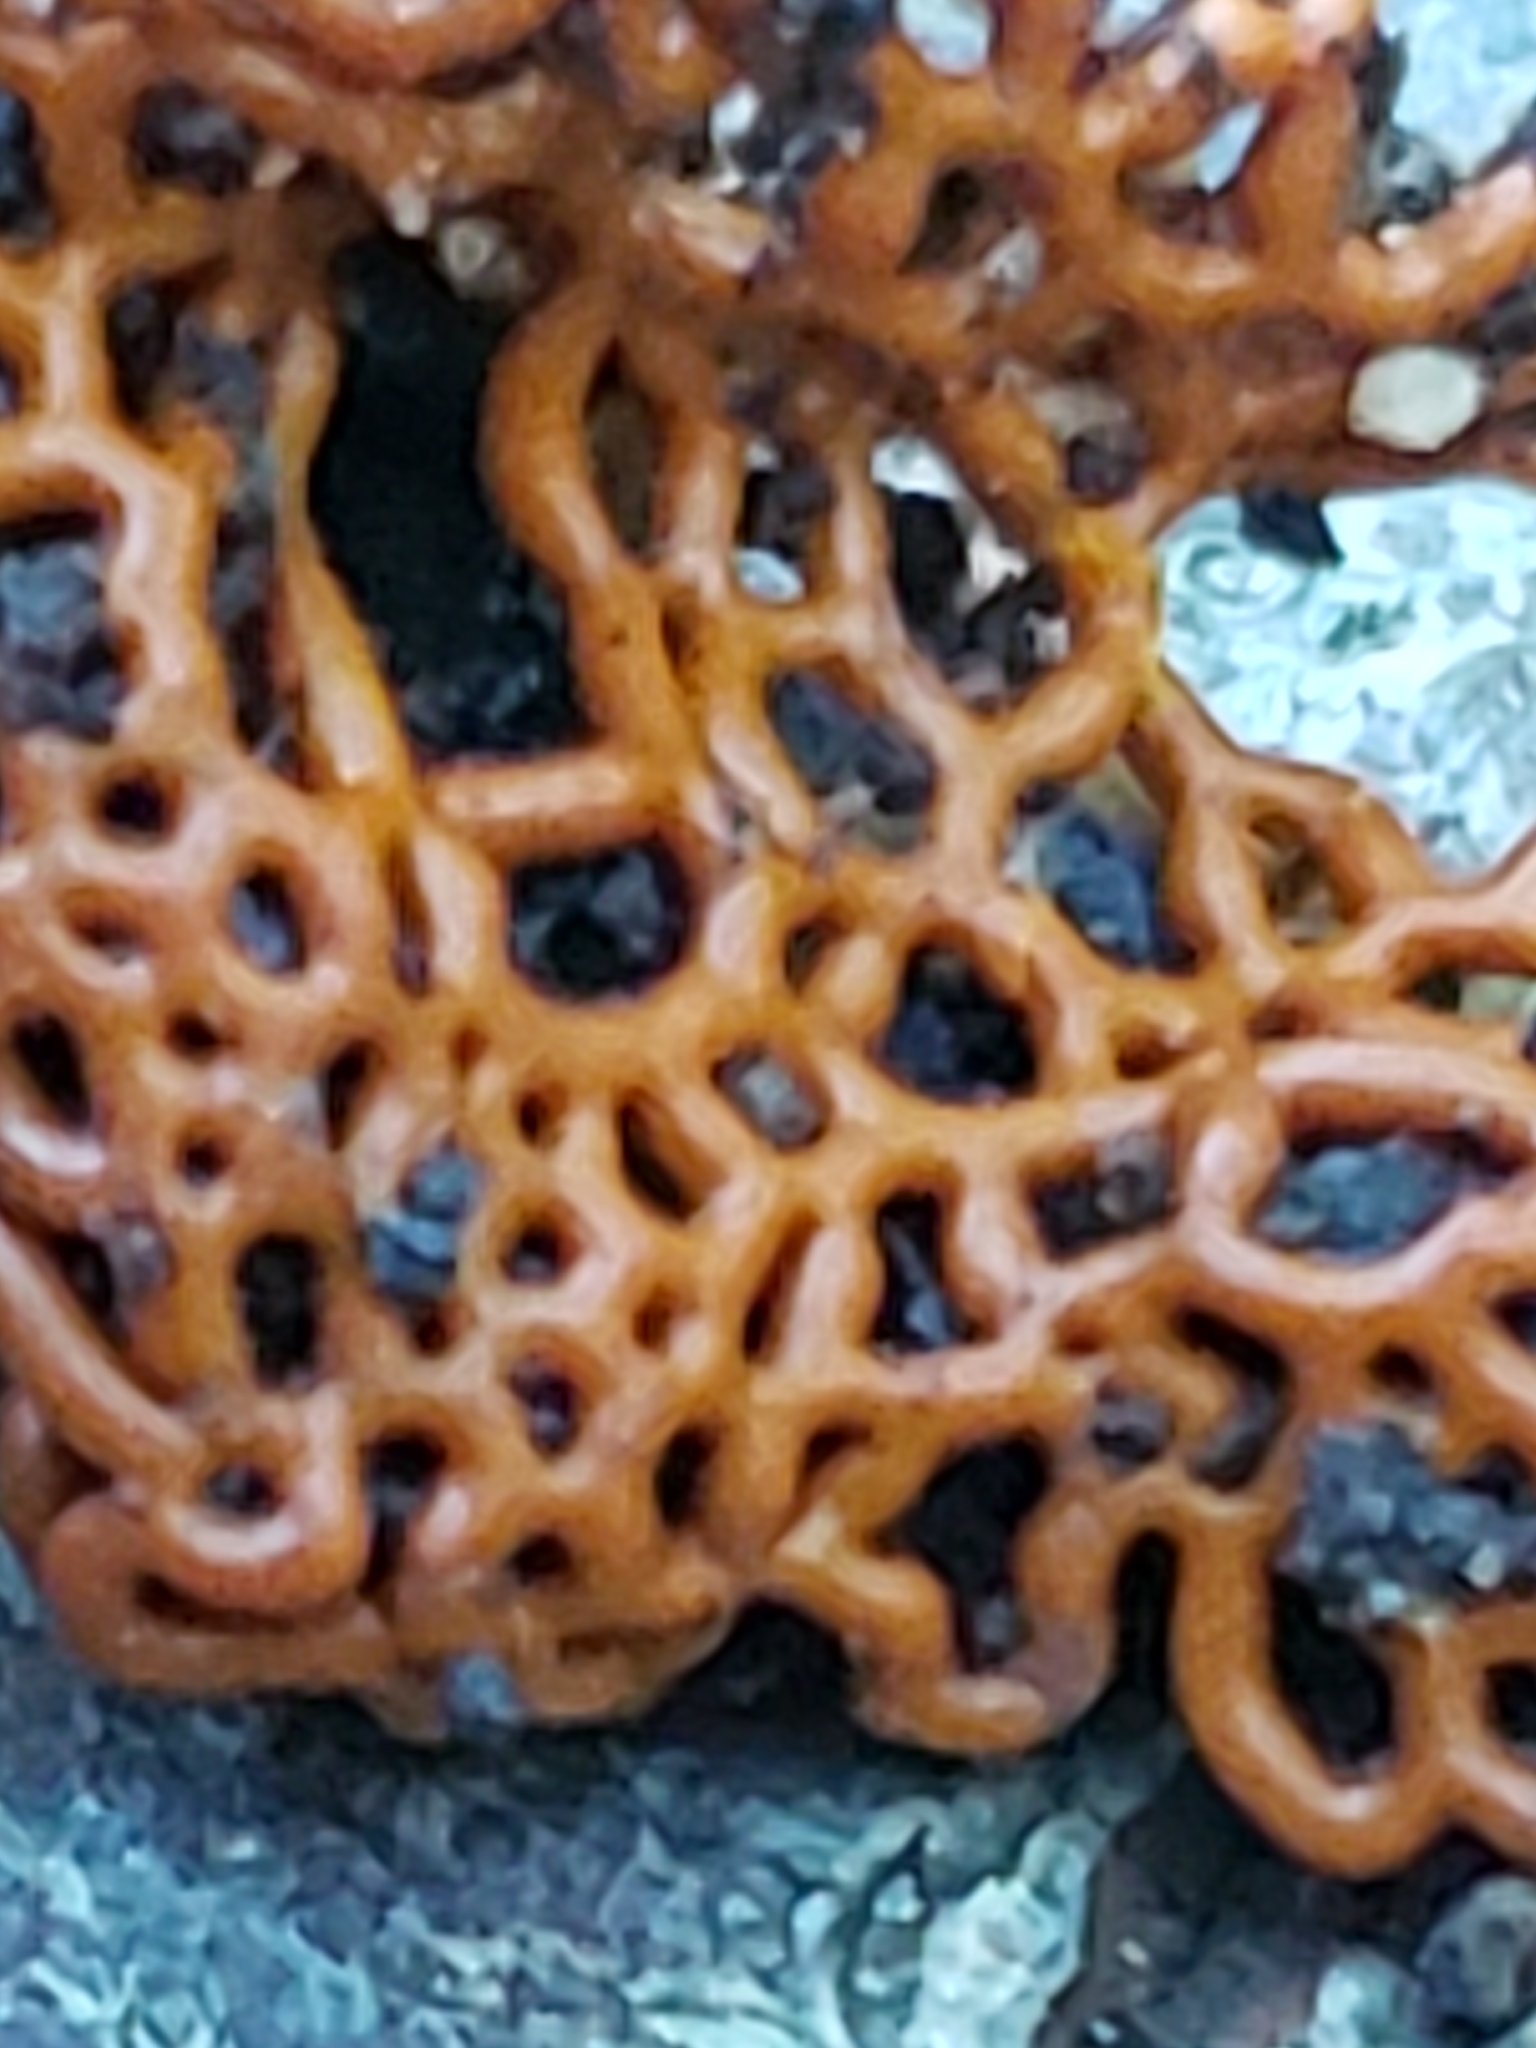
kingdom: Protozoa
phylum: Mycetozoa
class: Myxomycetes
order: Trichiales
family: Arcyriaceae
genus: Hemitrichia
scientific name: Hemitrichia serpula
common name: Pretzel slime mold
